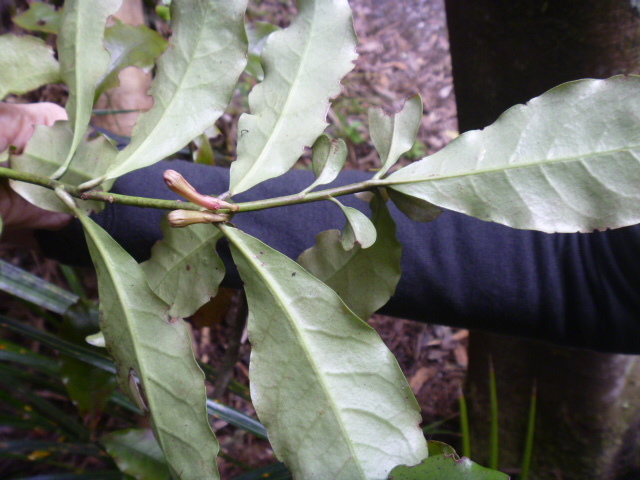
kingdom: Plantae
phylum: Tracheophyta
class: Magnoliopsida
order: Asterales
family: Alseuosmiaceae
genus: Alseuosmia
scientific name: Alseuosmia macrophylla
